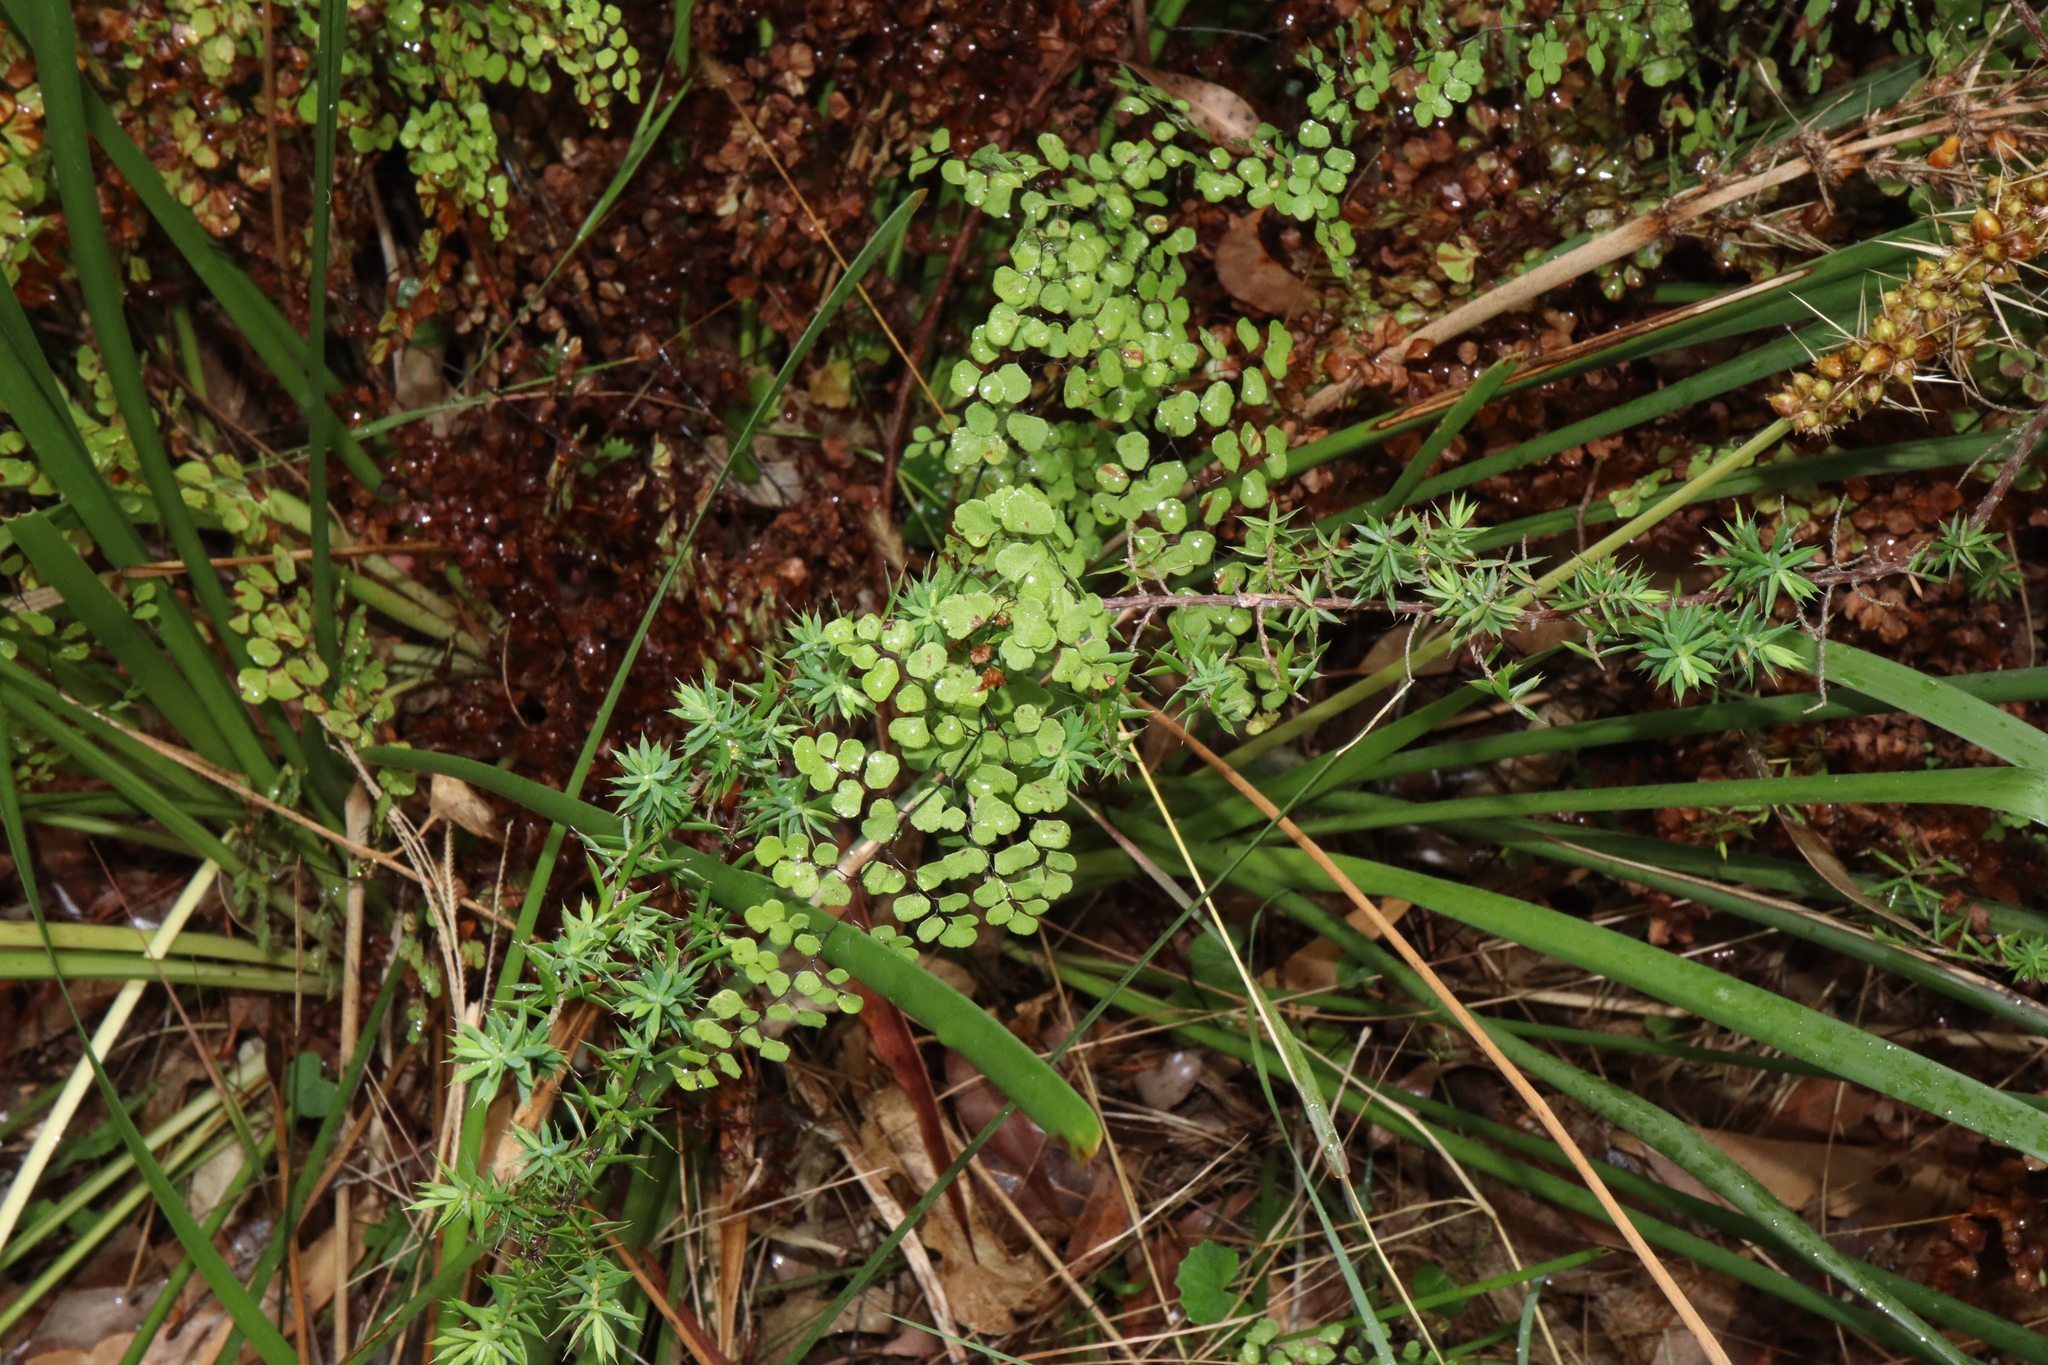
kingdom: Plantae
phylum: Tracheophyta
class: Polypodiopsida
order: Polypodiales
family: Pteridaceae
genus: Adiantum
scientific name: Adiantum aethiopicum
